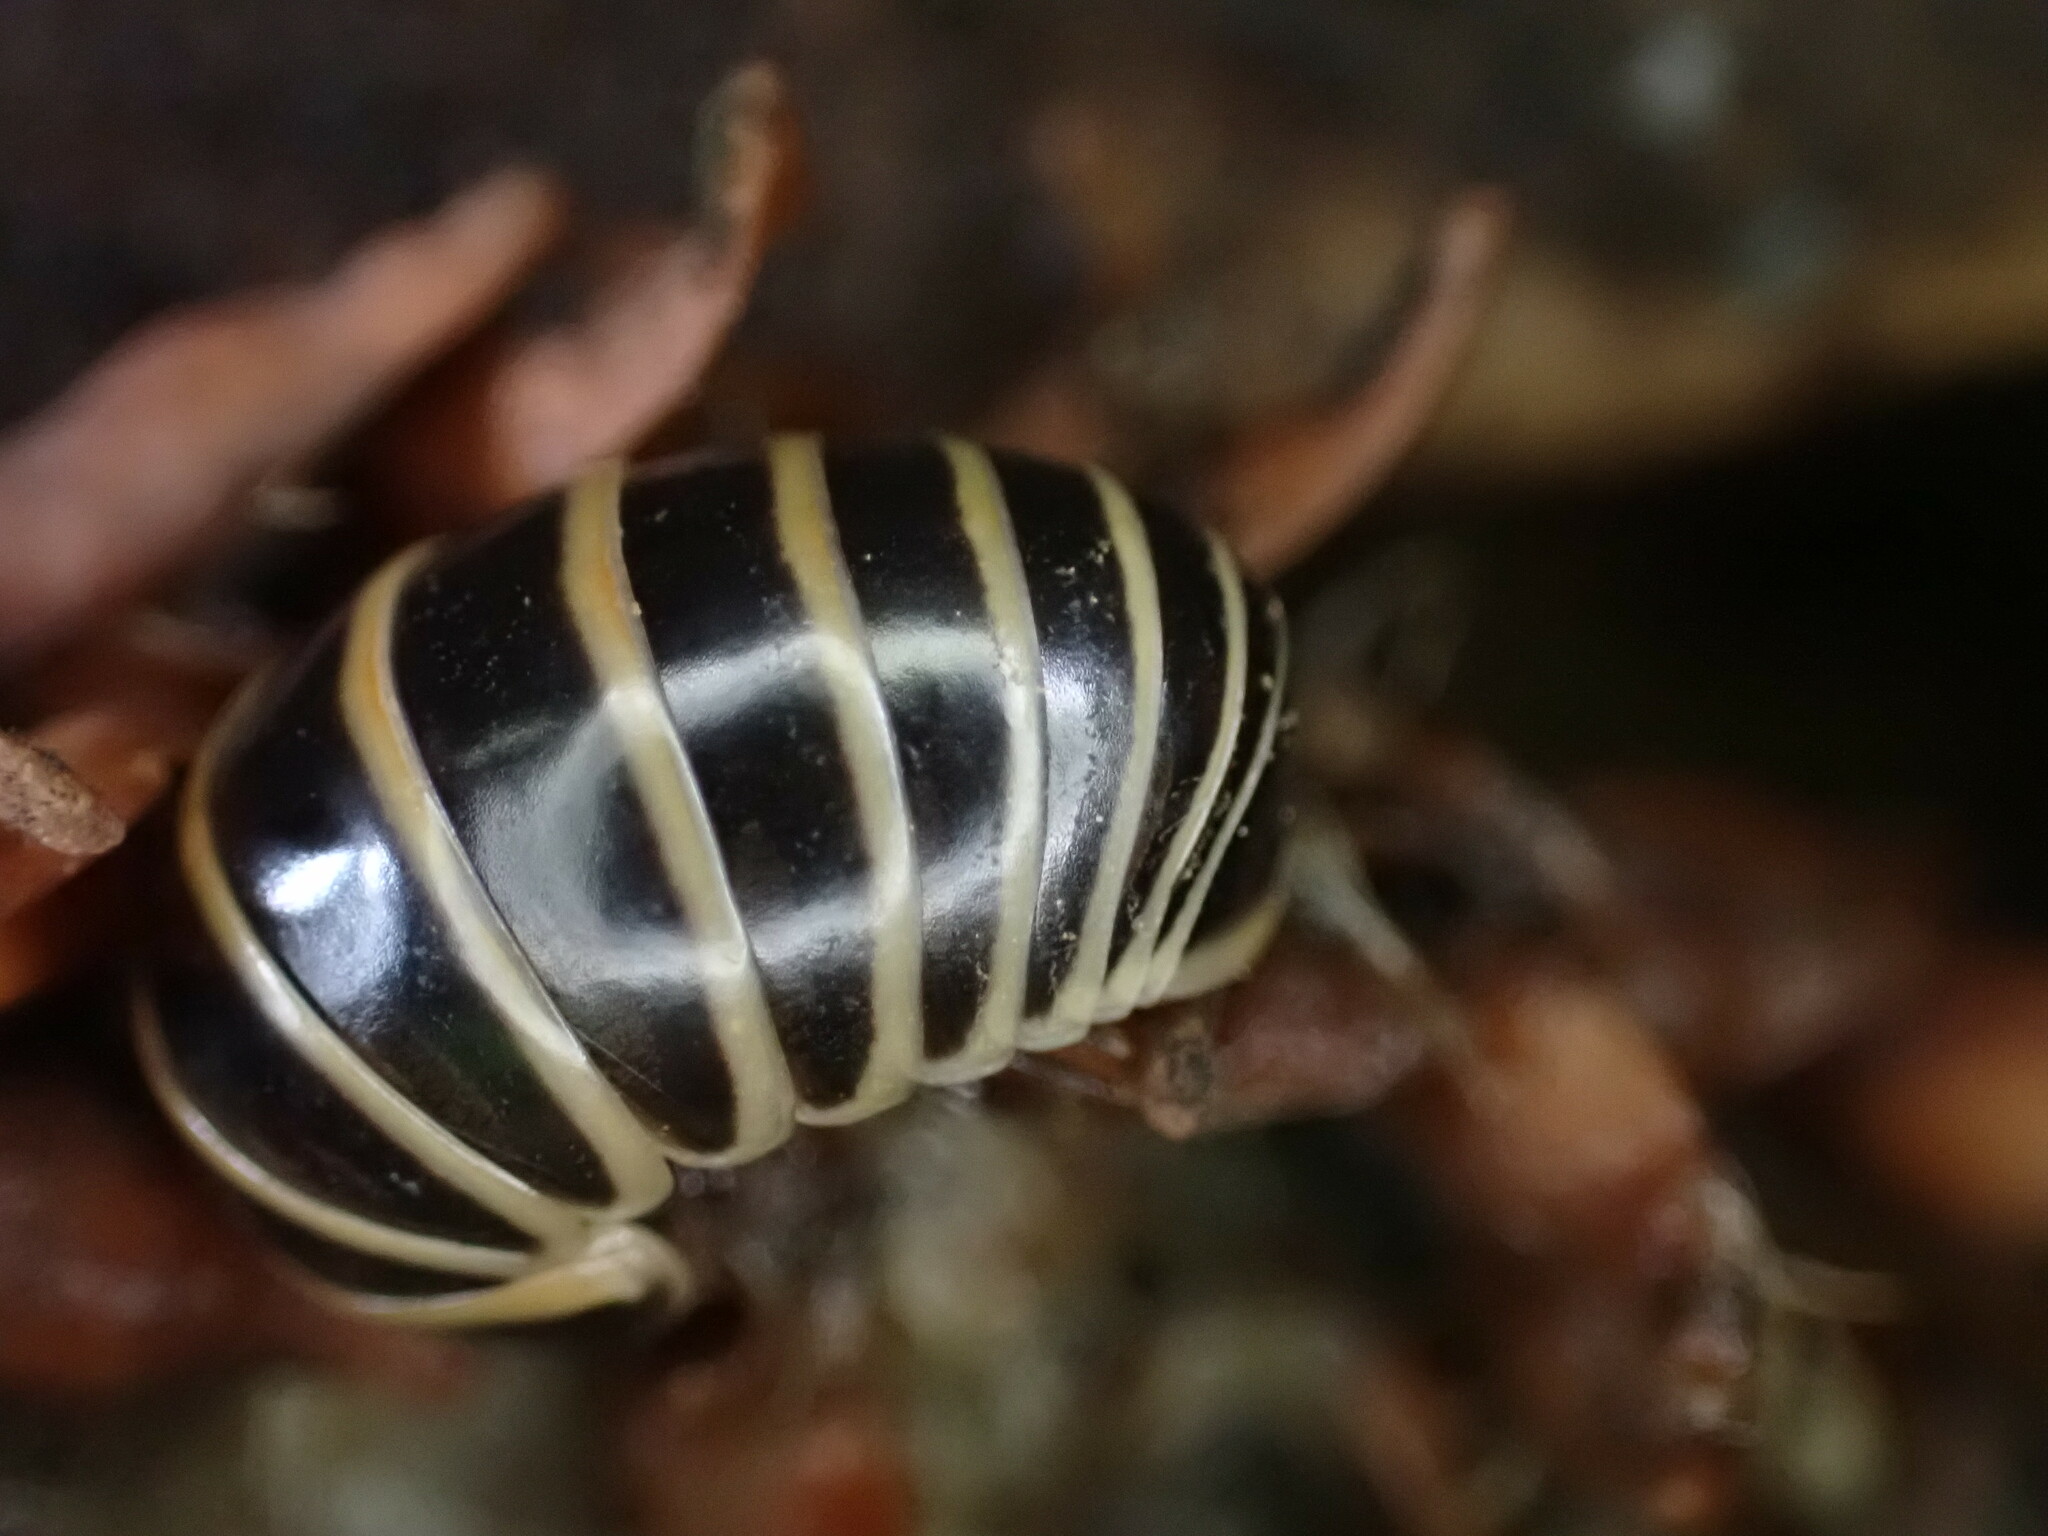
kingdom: Animalia
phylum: Arthropoda
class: Diplopoda
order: Glomerida
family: Glomeridae
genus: Glomeris
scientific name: Glomeris marginata
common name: Bordered pill millipede
